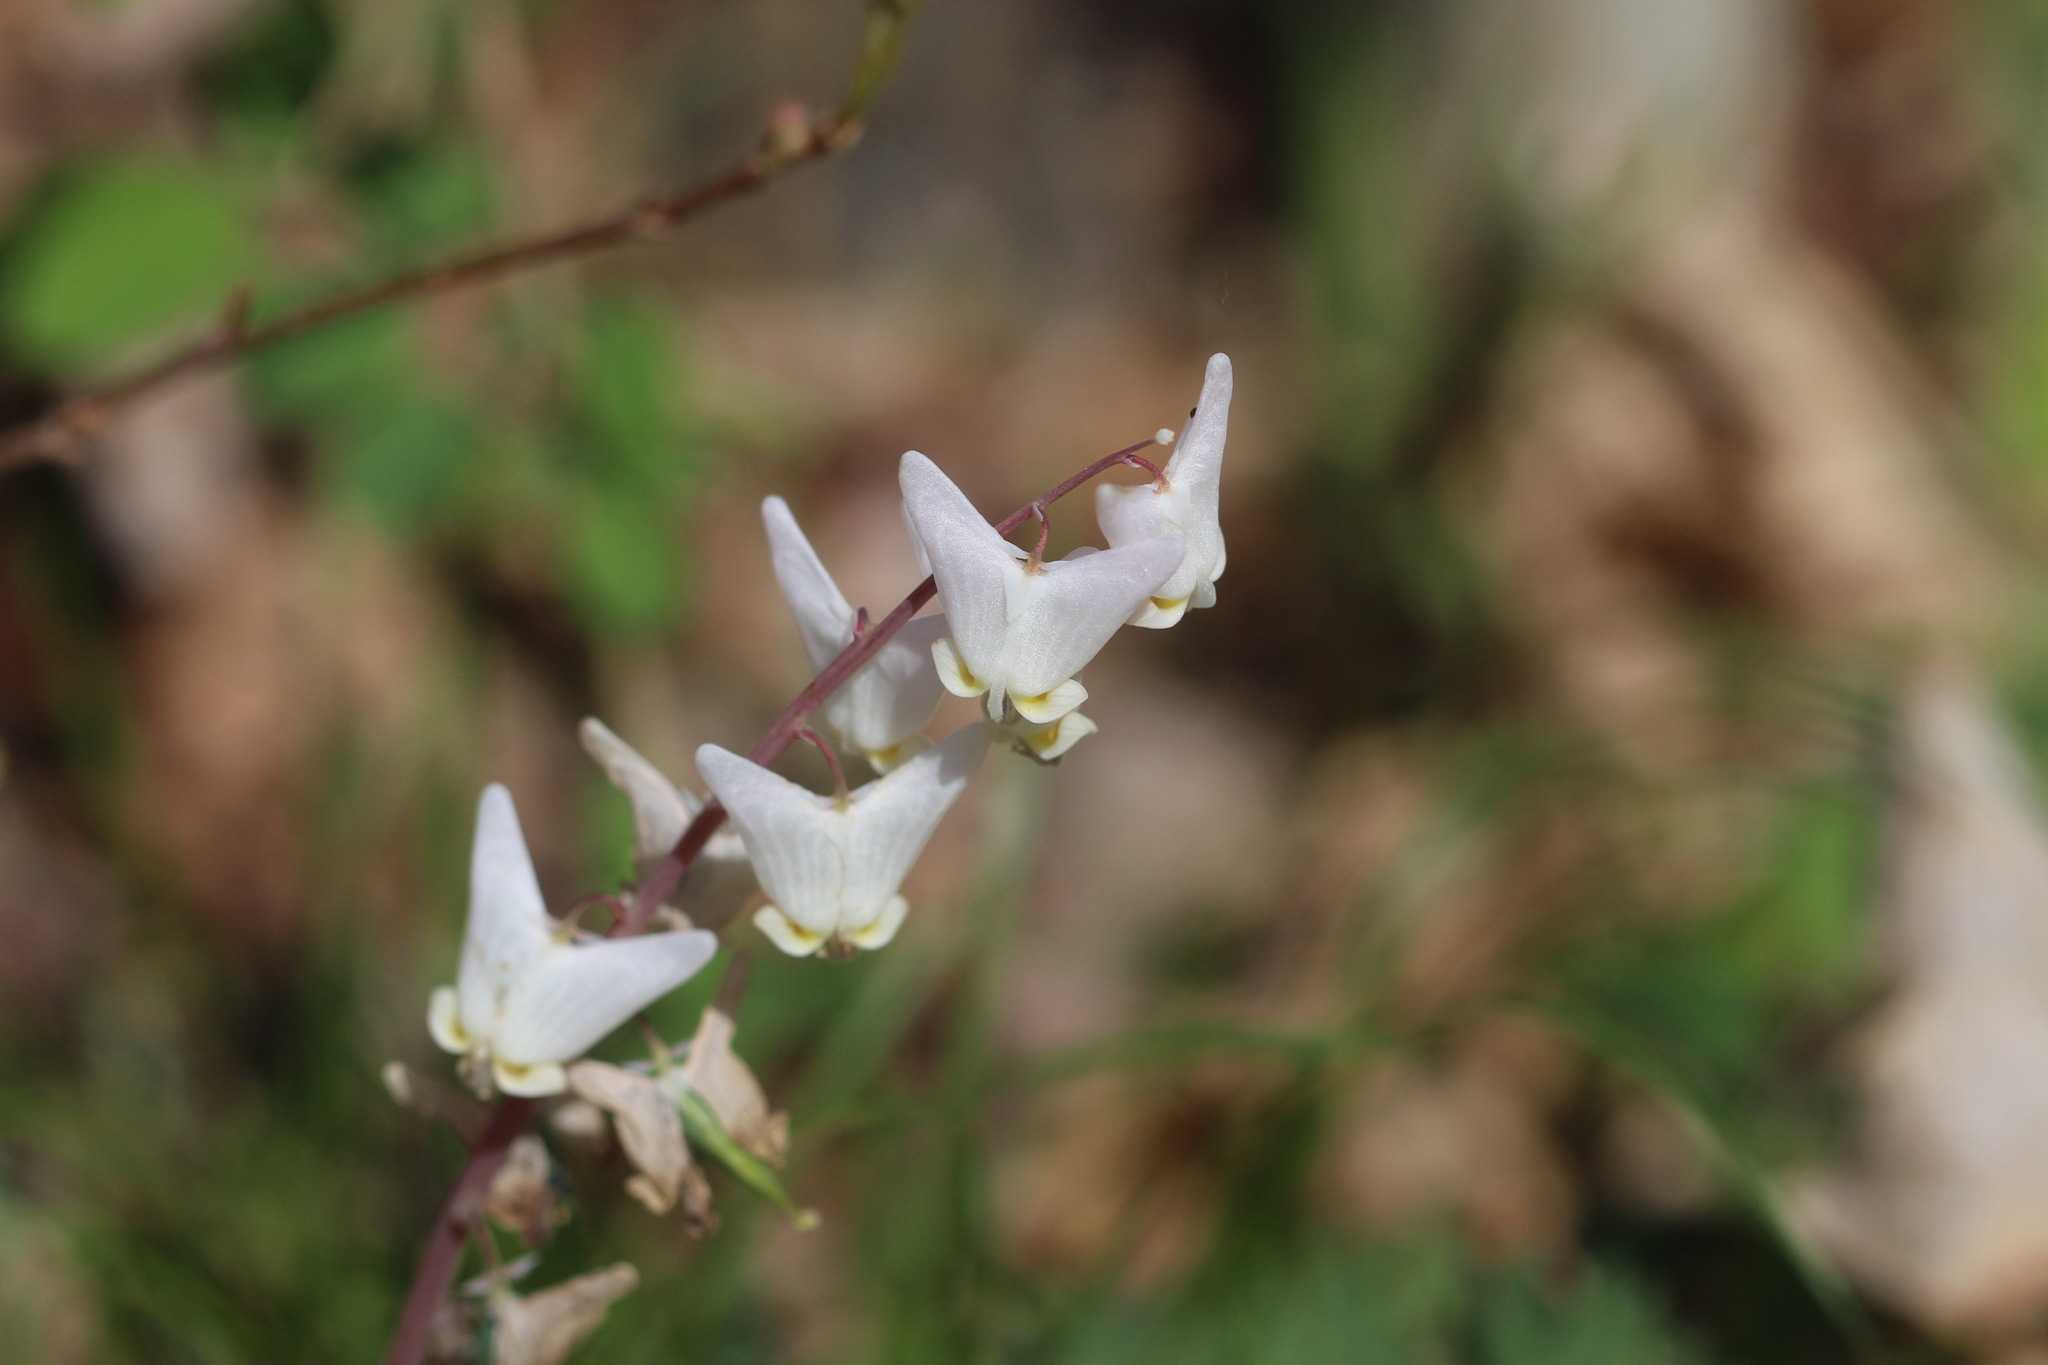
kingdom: Plantae
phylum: Tracheophyta
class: Magnoliopsida
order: Ranunculales
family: Papaveraceae
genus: Dicentra
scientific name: Dicentra cucullaria
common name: Dutchman's breeches
